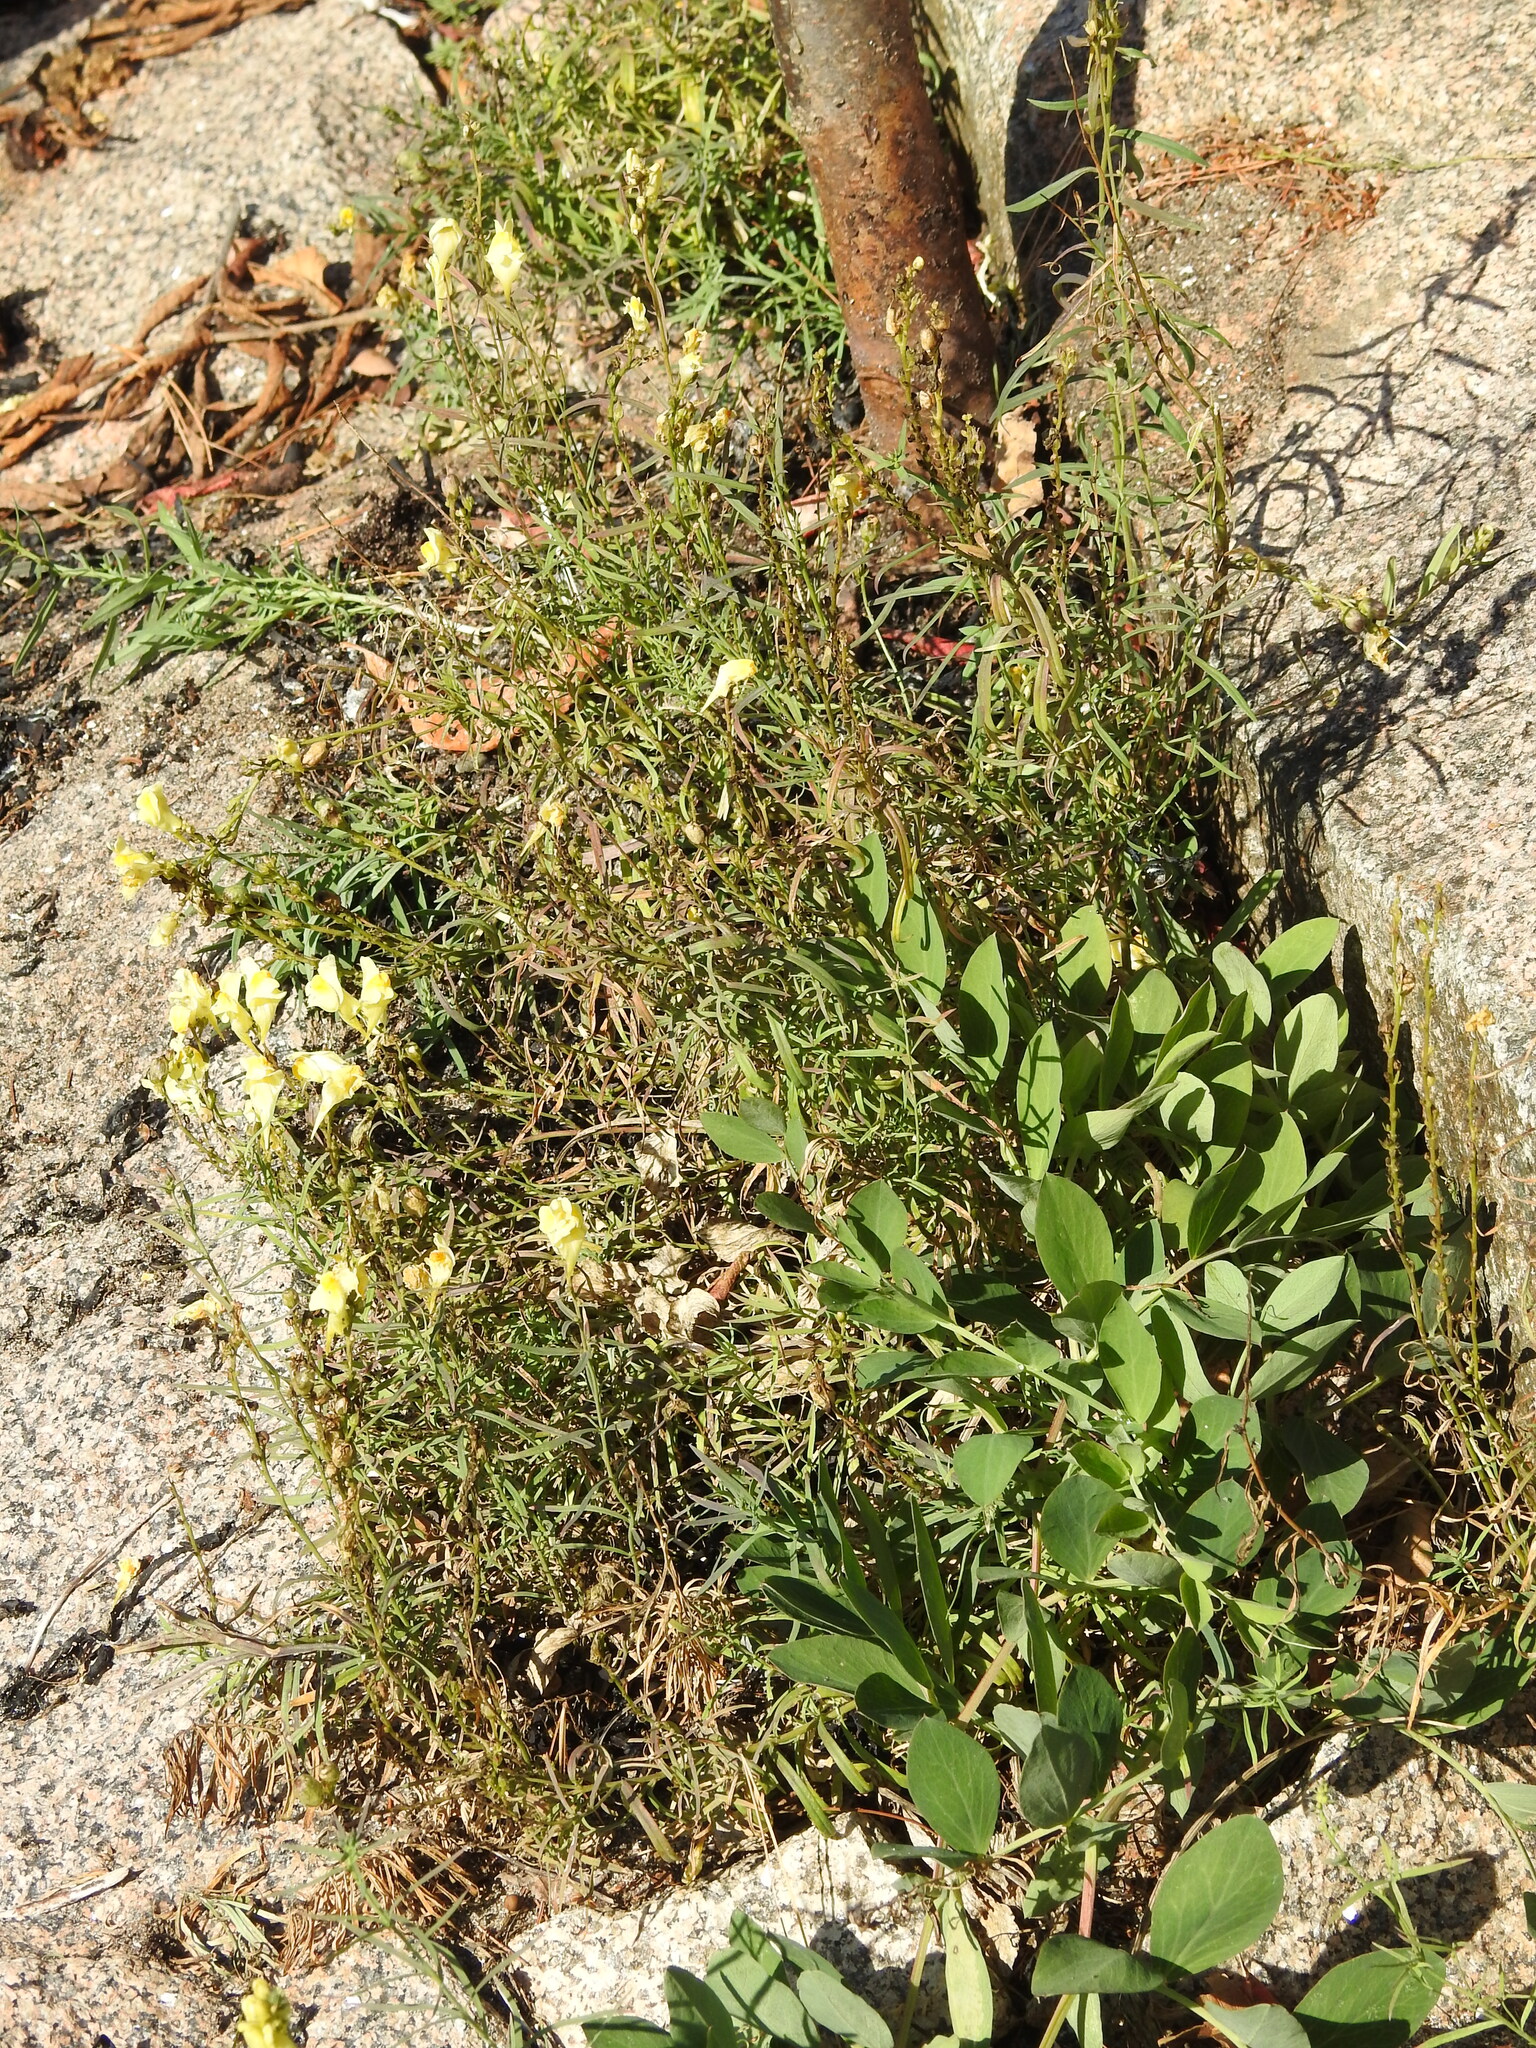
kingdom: Plantae
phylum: Tracheophyta
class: Magnoliopsida
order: Lamiales
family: Plantaginaceae
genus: Linaria
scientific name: Linaria vulgaris
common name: Butter and eggs
